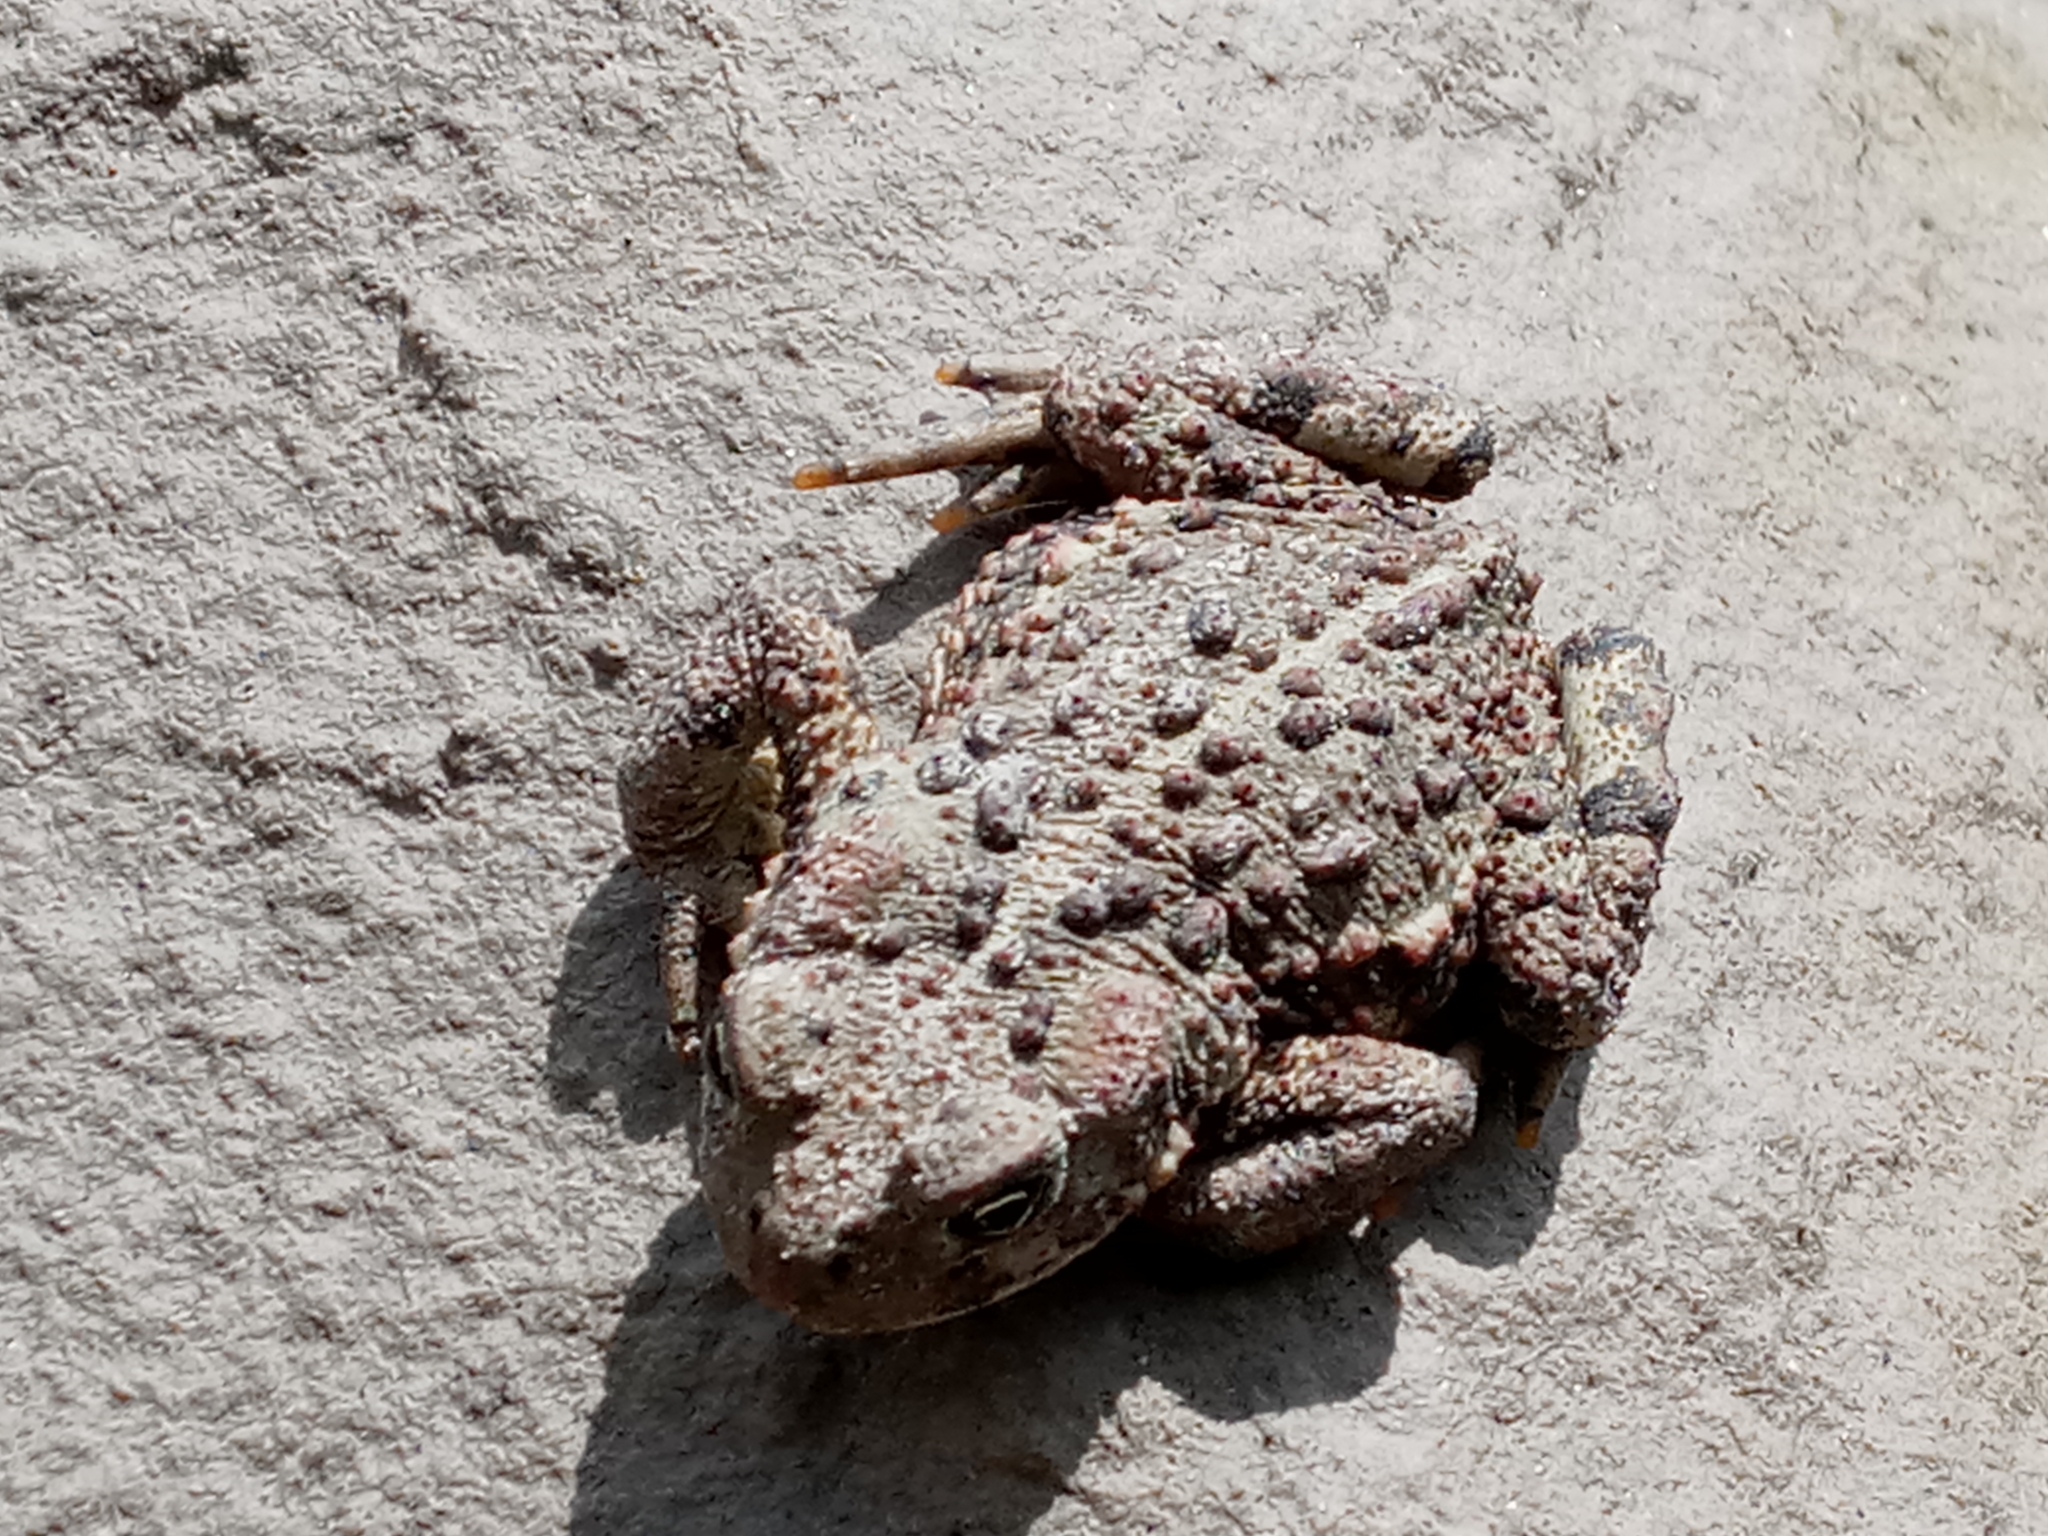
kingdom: Animalia
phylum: Chordata
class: Amphibia
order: Anura
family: Bufonidae
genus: Anaxyrus
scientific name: Anaxyrus boreas
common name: Western toad
